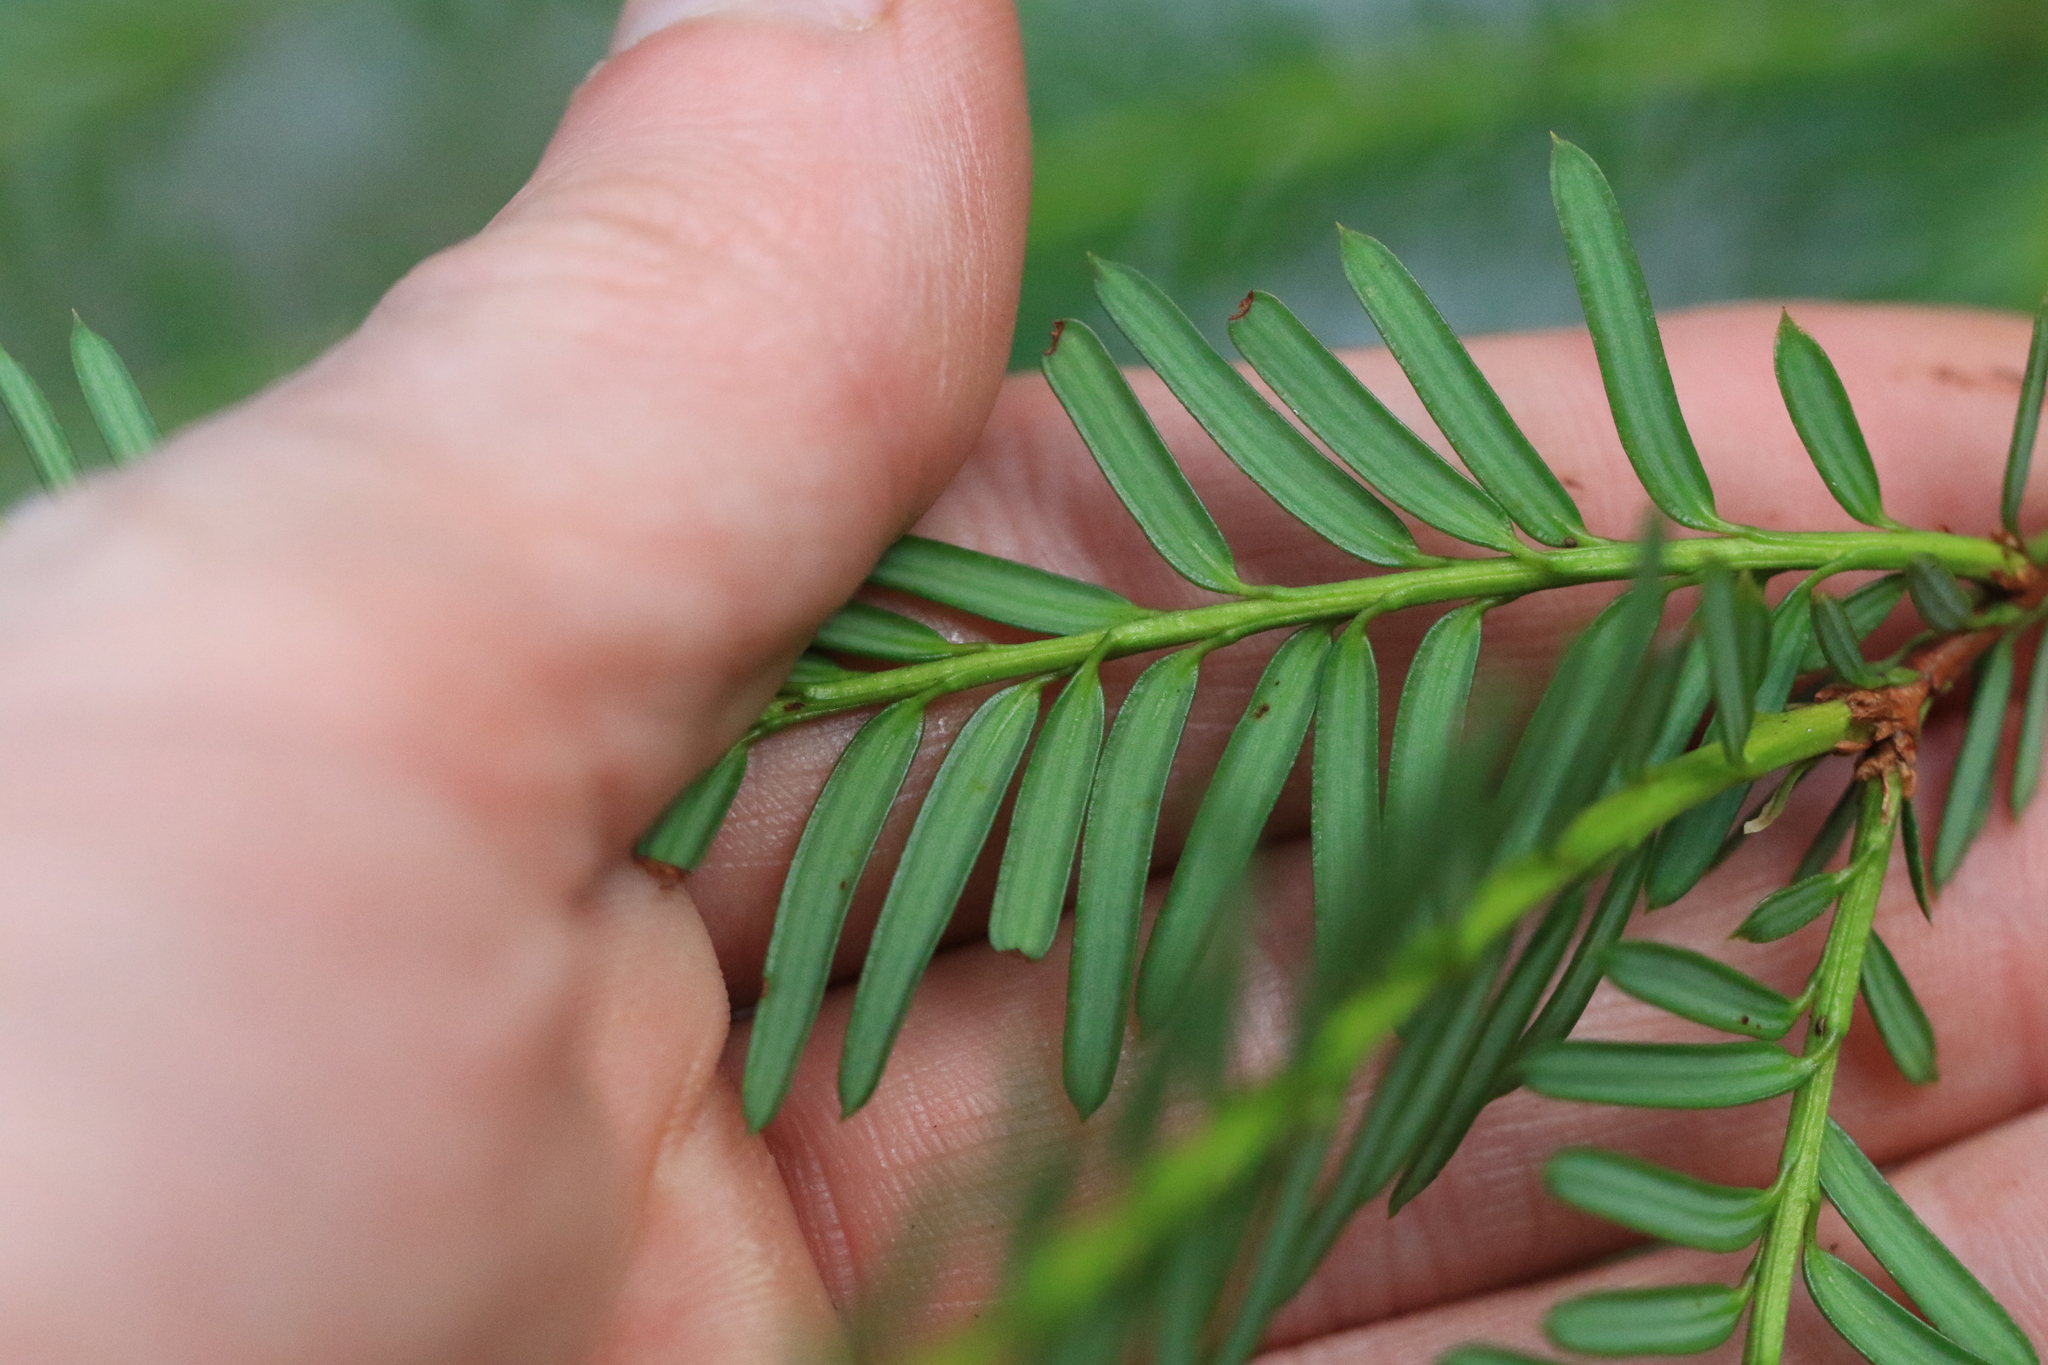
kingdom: Plantae
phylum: Tracheophyta
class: Pinopsida
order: Pinales
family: Taxaceae
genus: Taxus
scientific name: Taxus brevifolia
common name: Pacific yew
